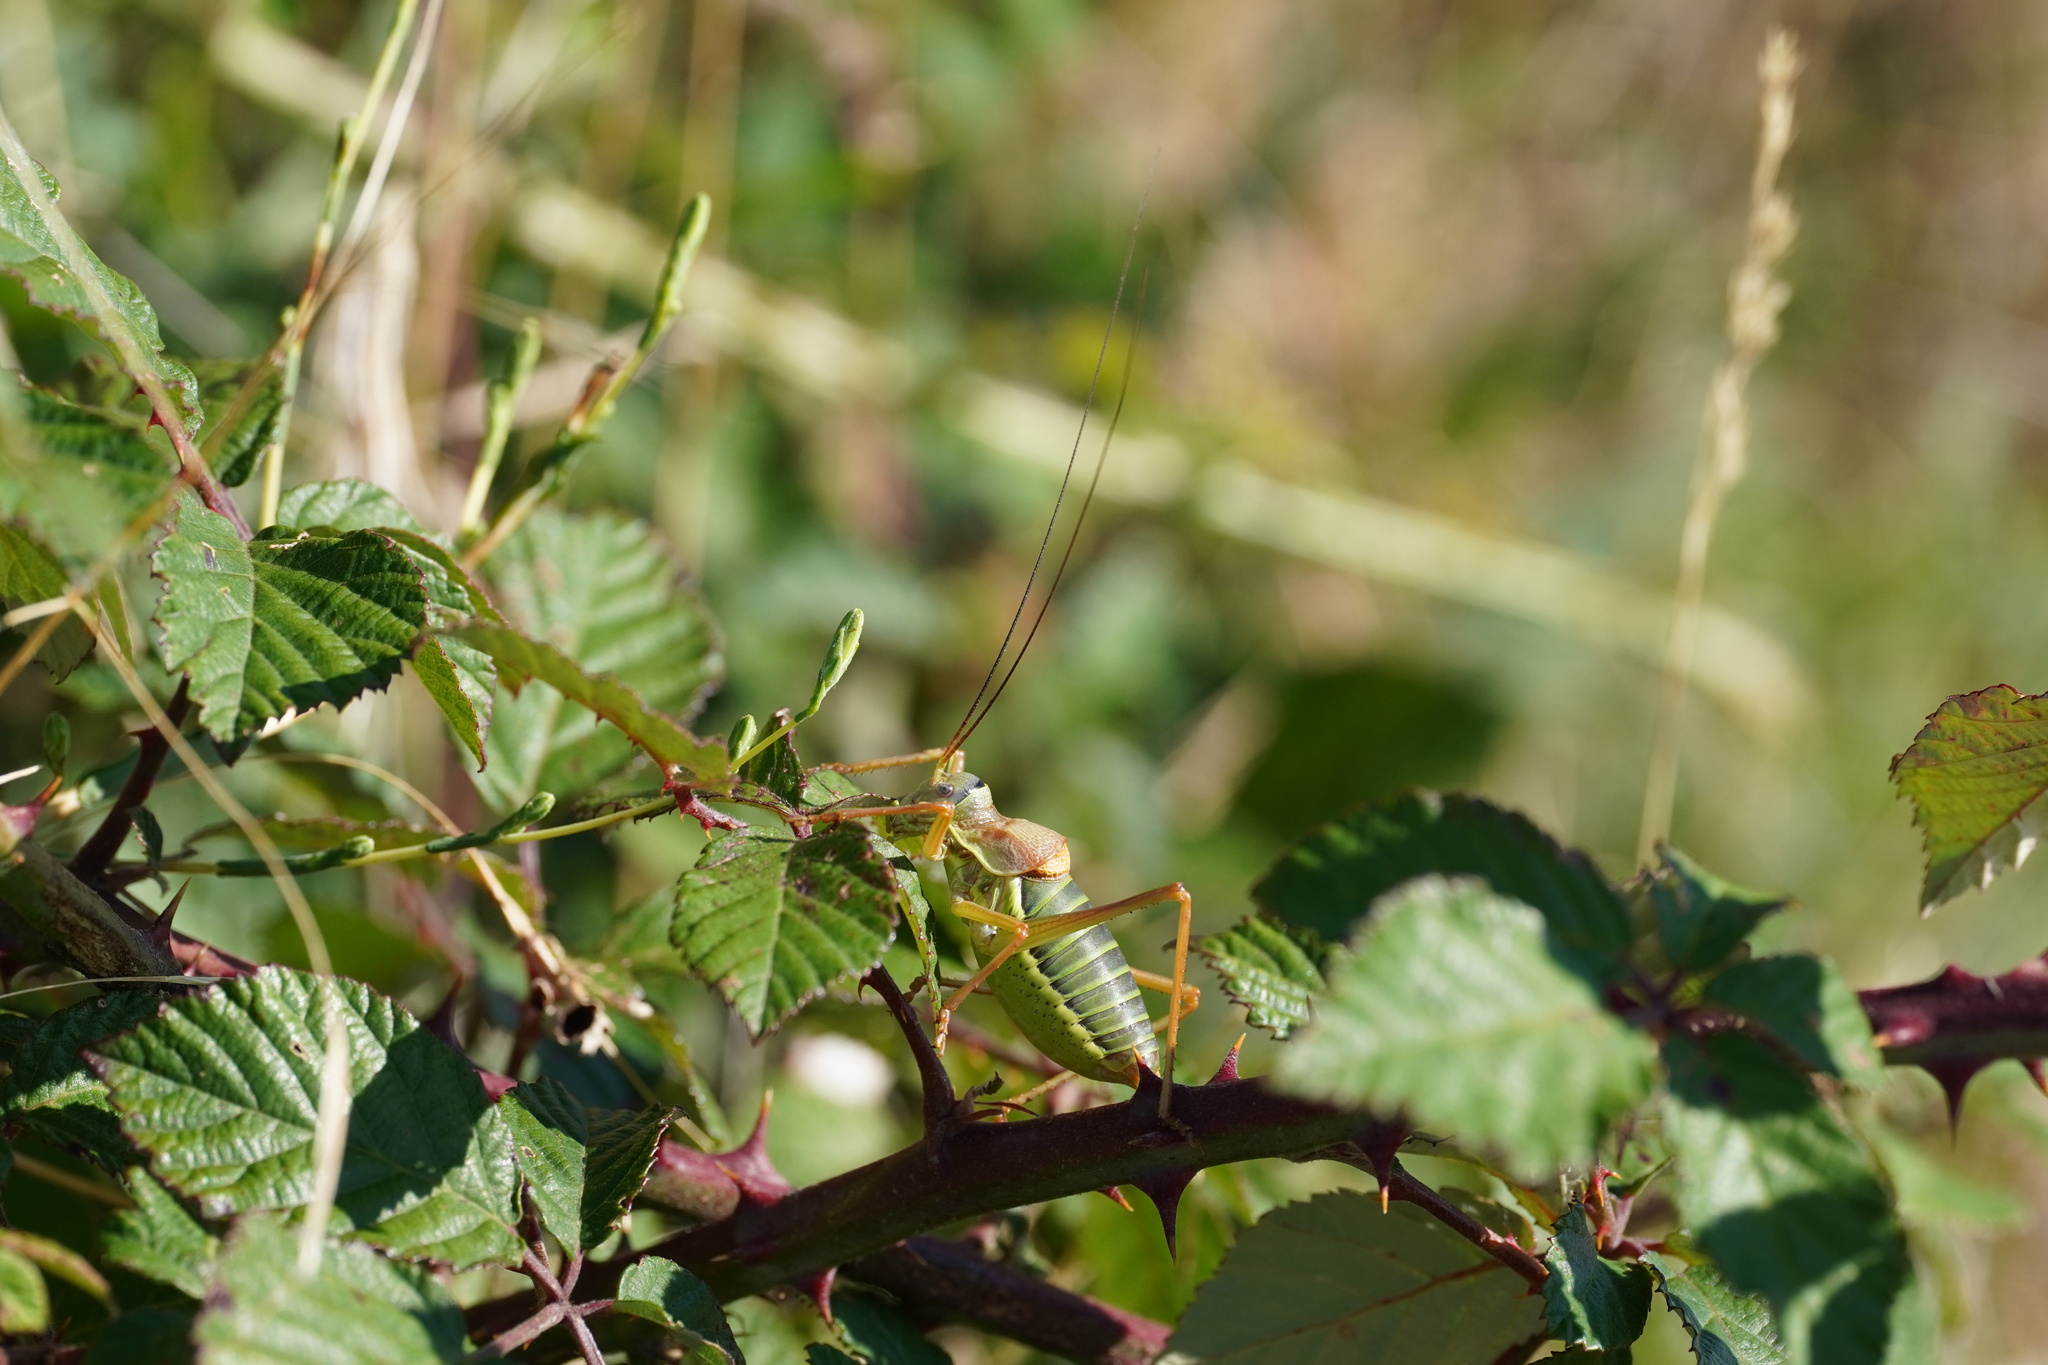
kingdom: Animalia
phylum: Arthropoda
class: Insecta
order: Orthoptera
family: Tettigoniidae
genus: Ephippiger
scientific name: Ephippiger diurnus
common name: Western saddle bush-cricket
